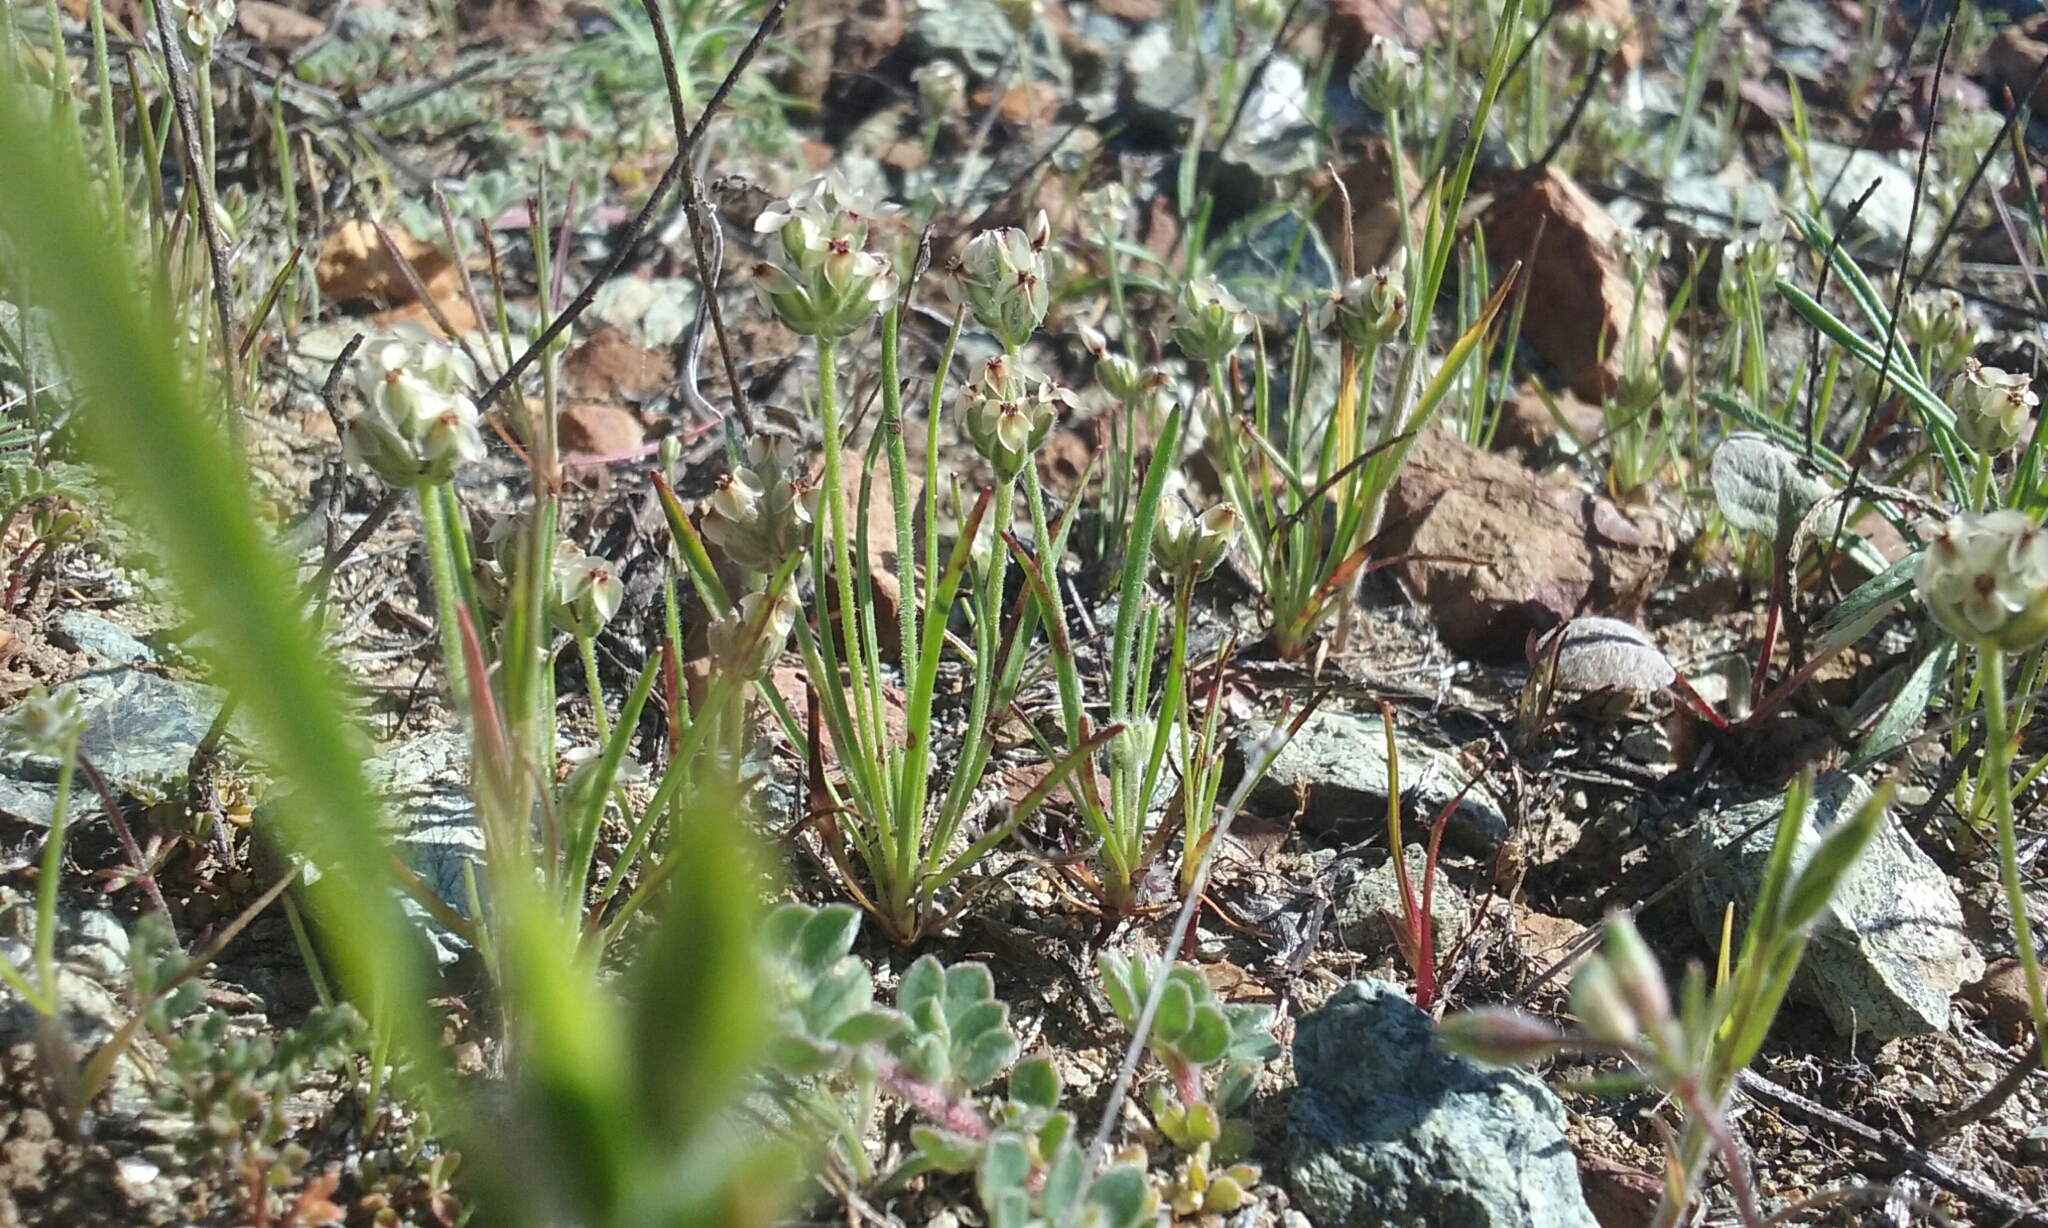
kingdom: Plantae
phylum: Tracheophyta
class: Magnoliopsida
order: Lamiales
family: Plantaginaceae
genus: Plantago
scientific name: Plantago erecta
